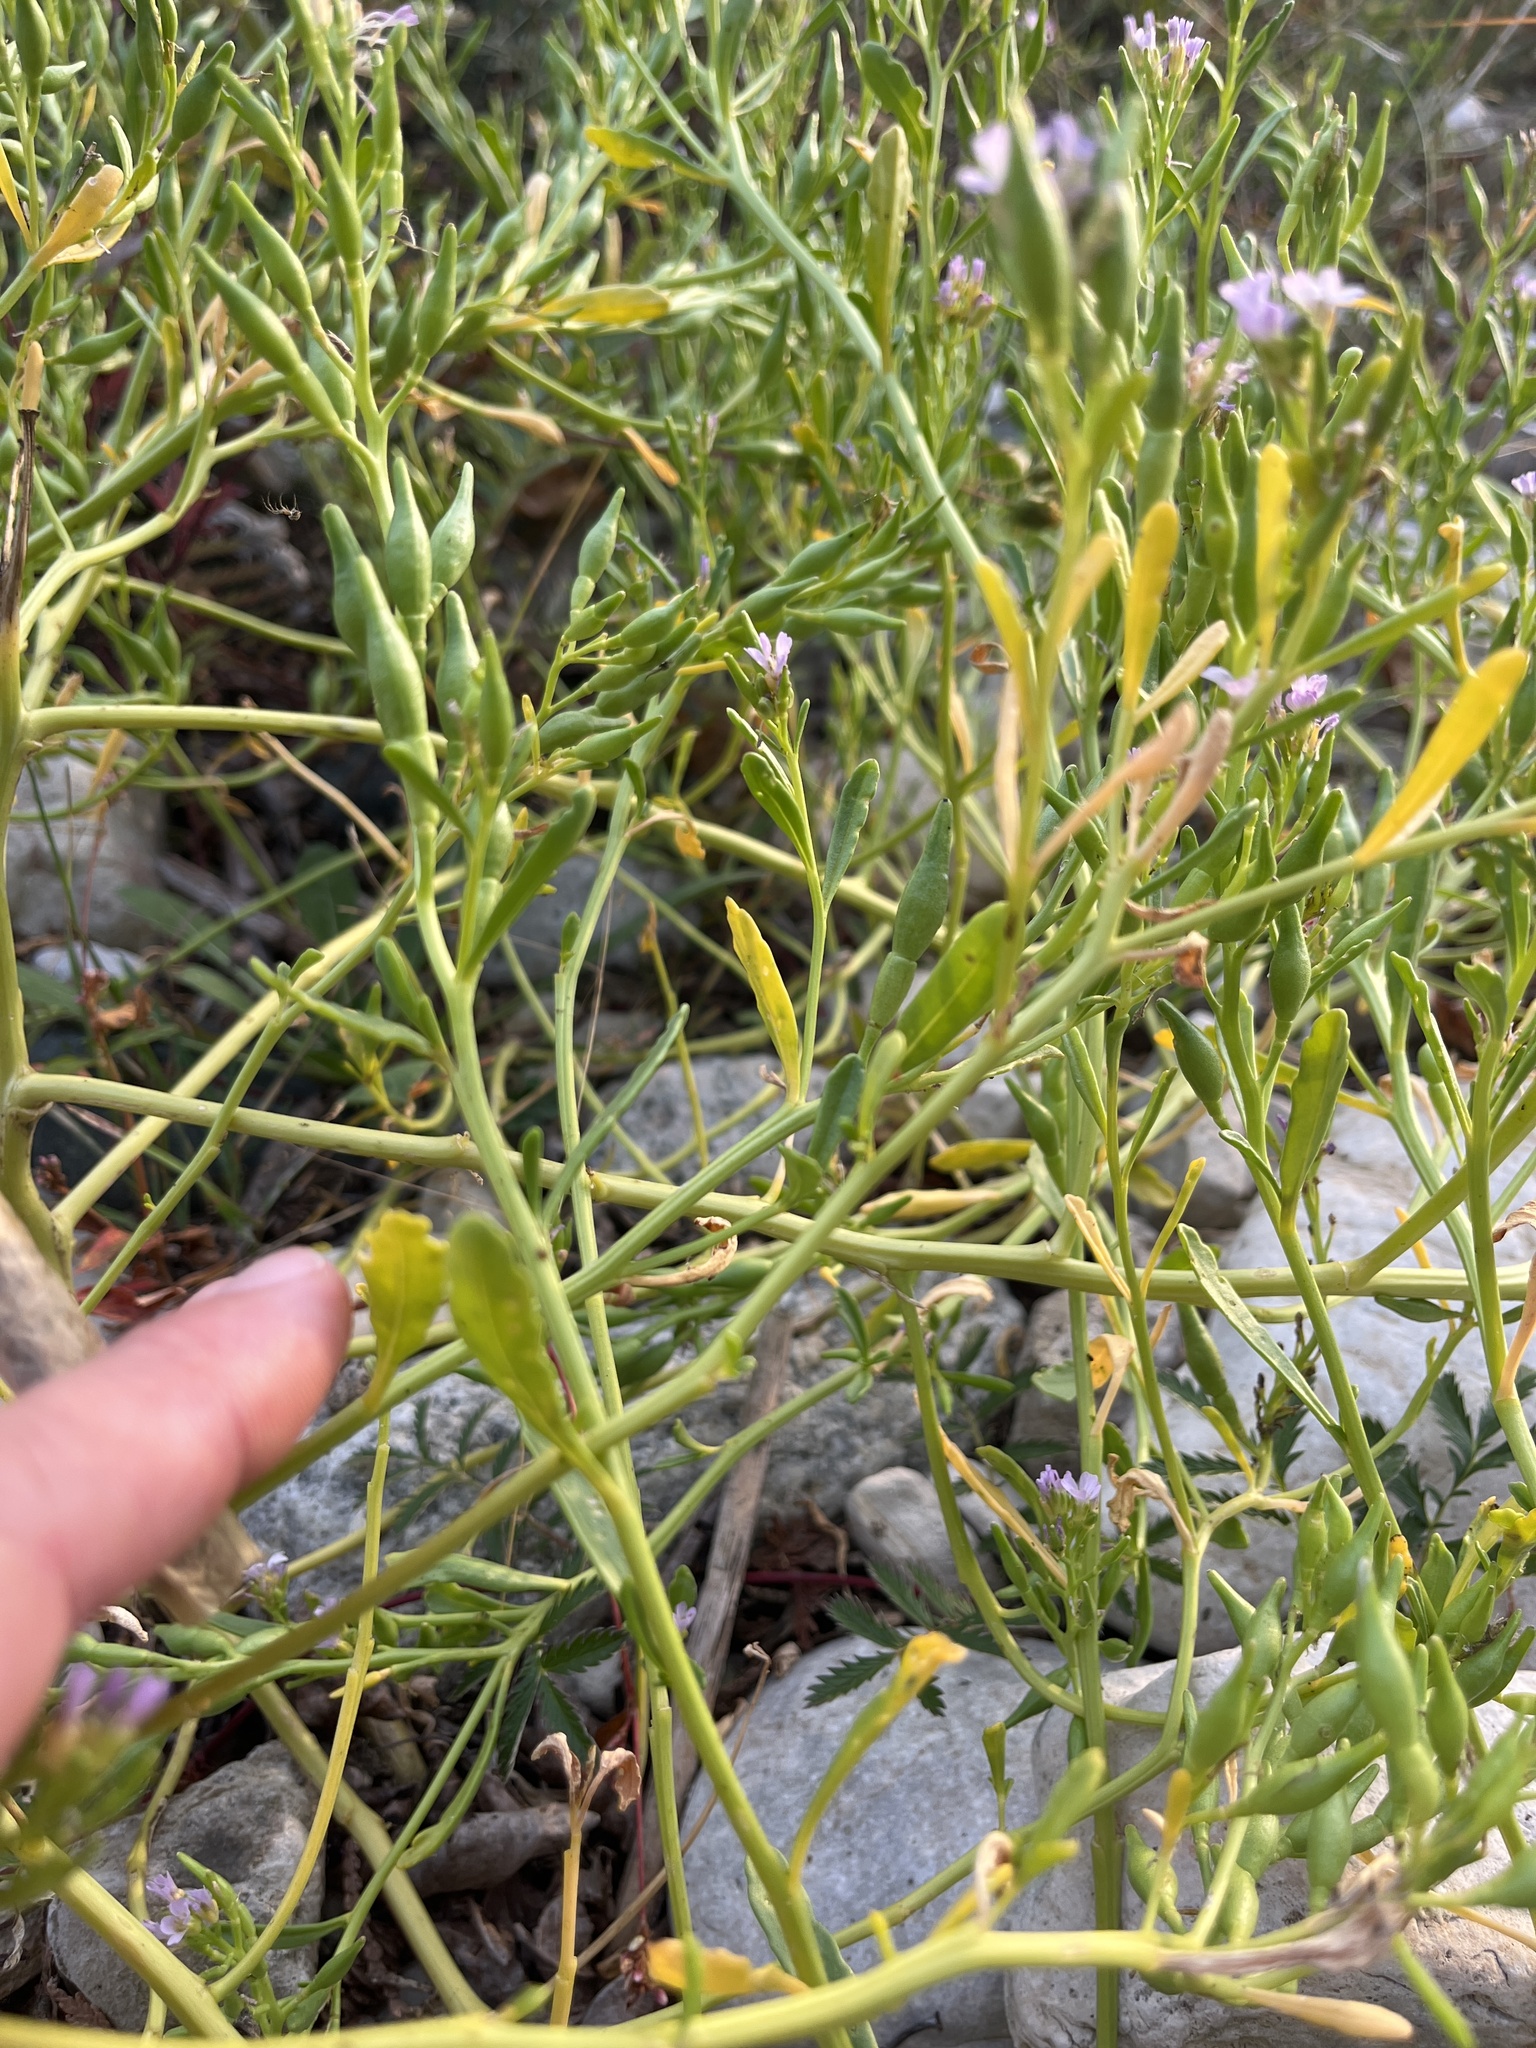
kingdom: Plantae
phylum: Tracheophyta
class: Magnoliopsida
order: Brassicales
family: Brassicaceae
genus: Cakile
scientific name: Cakile edentula
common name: American sea rocket
